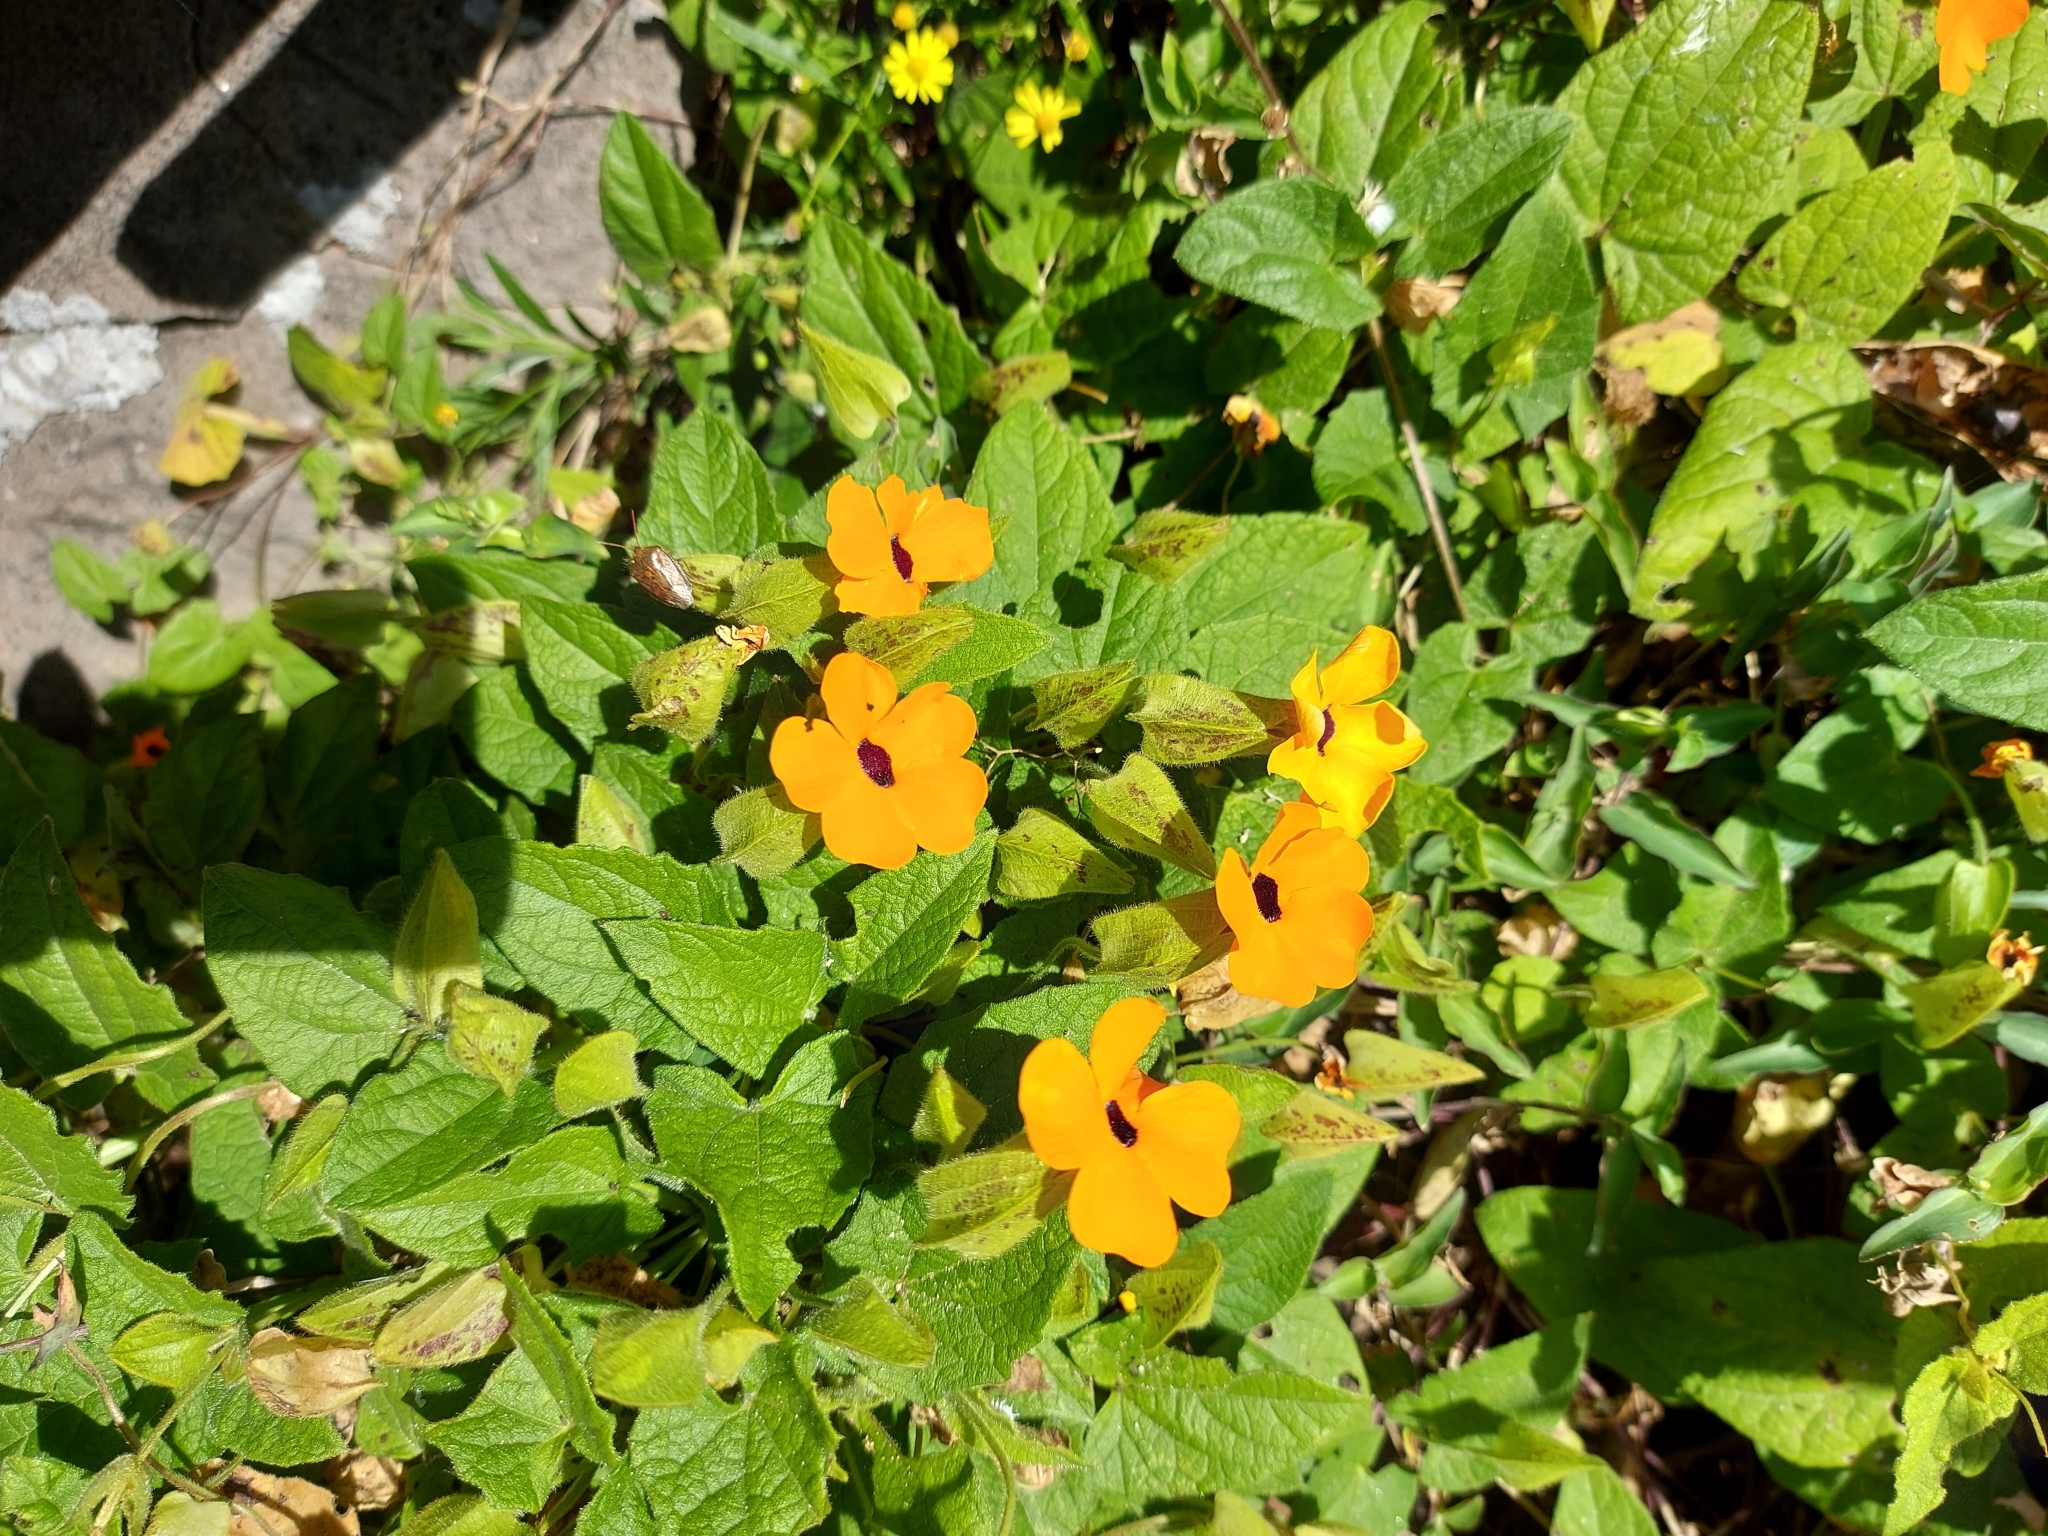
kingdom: Plantae
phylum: Tracheophyta
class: Magnoliopsida
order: Lamiales
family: Acanthaceae
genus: Thunbergia
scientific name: Thunbergia alata
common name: Blackeyed susan vine
